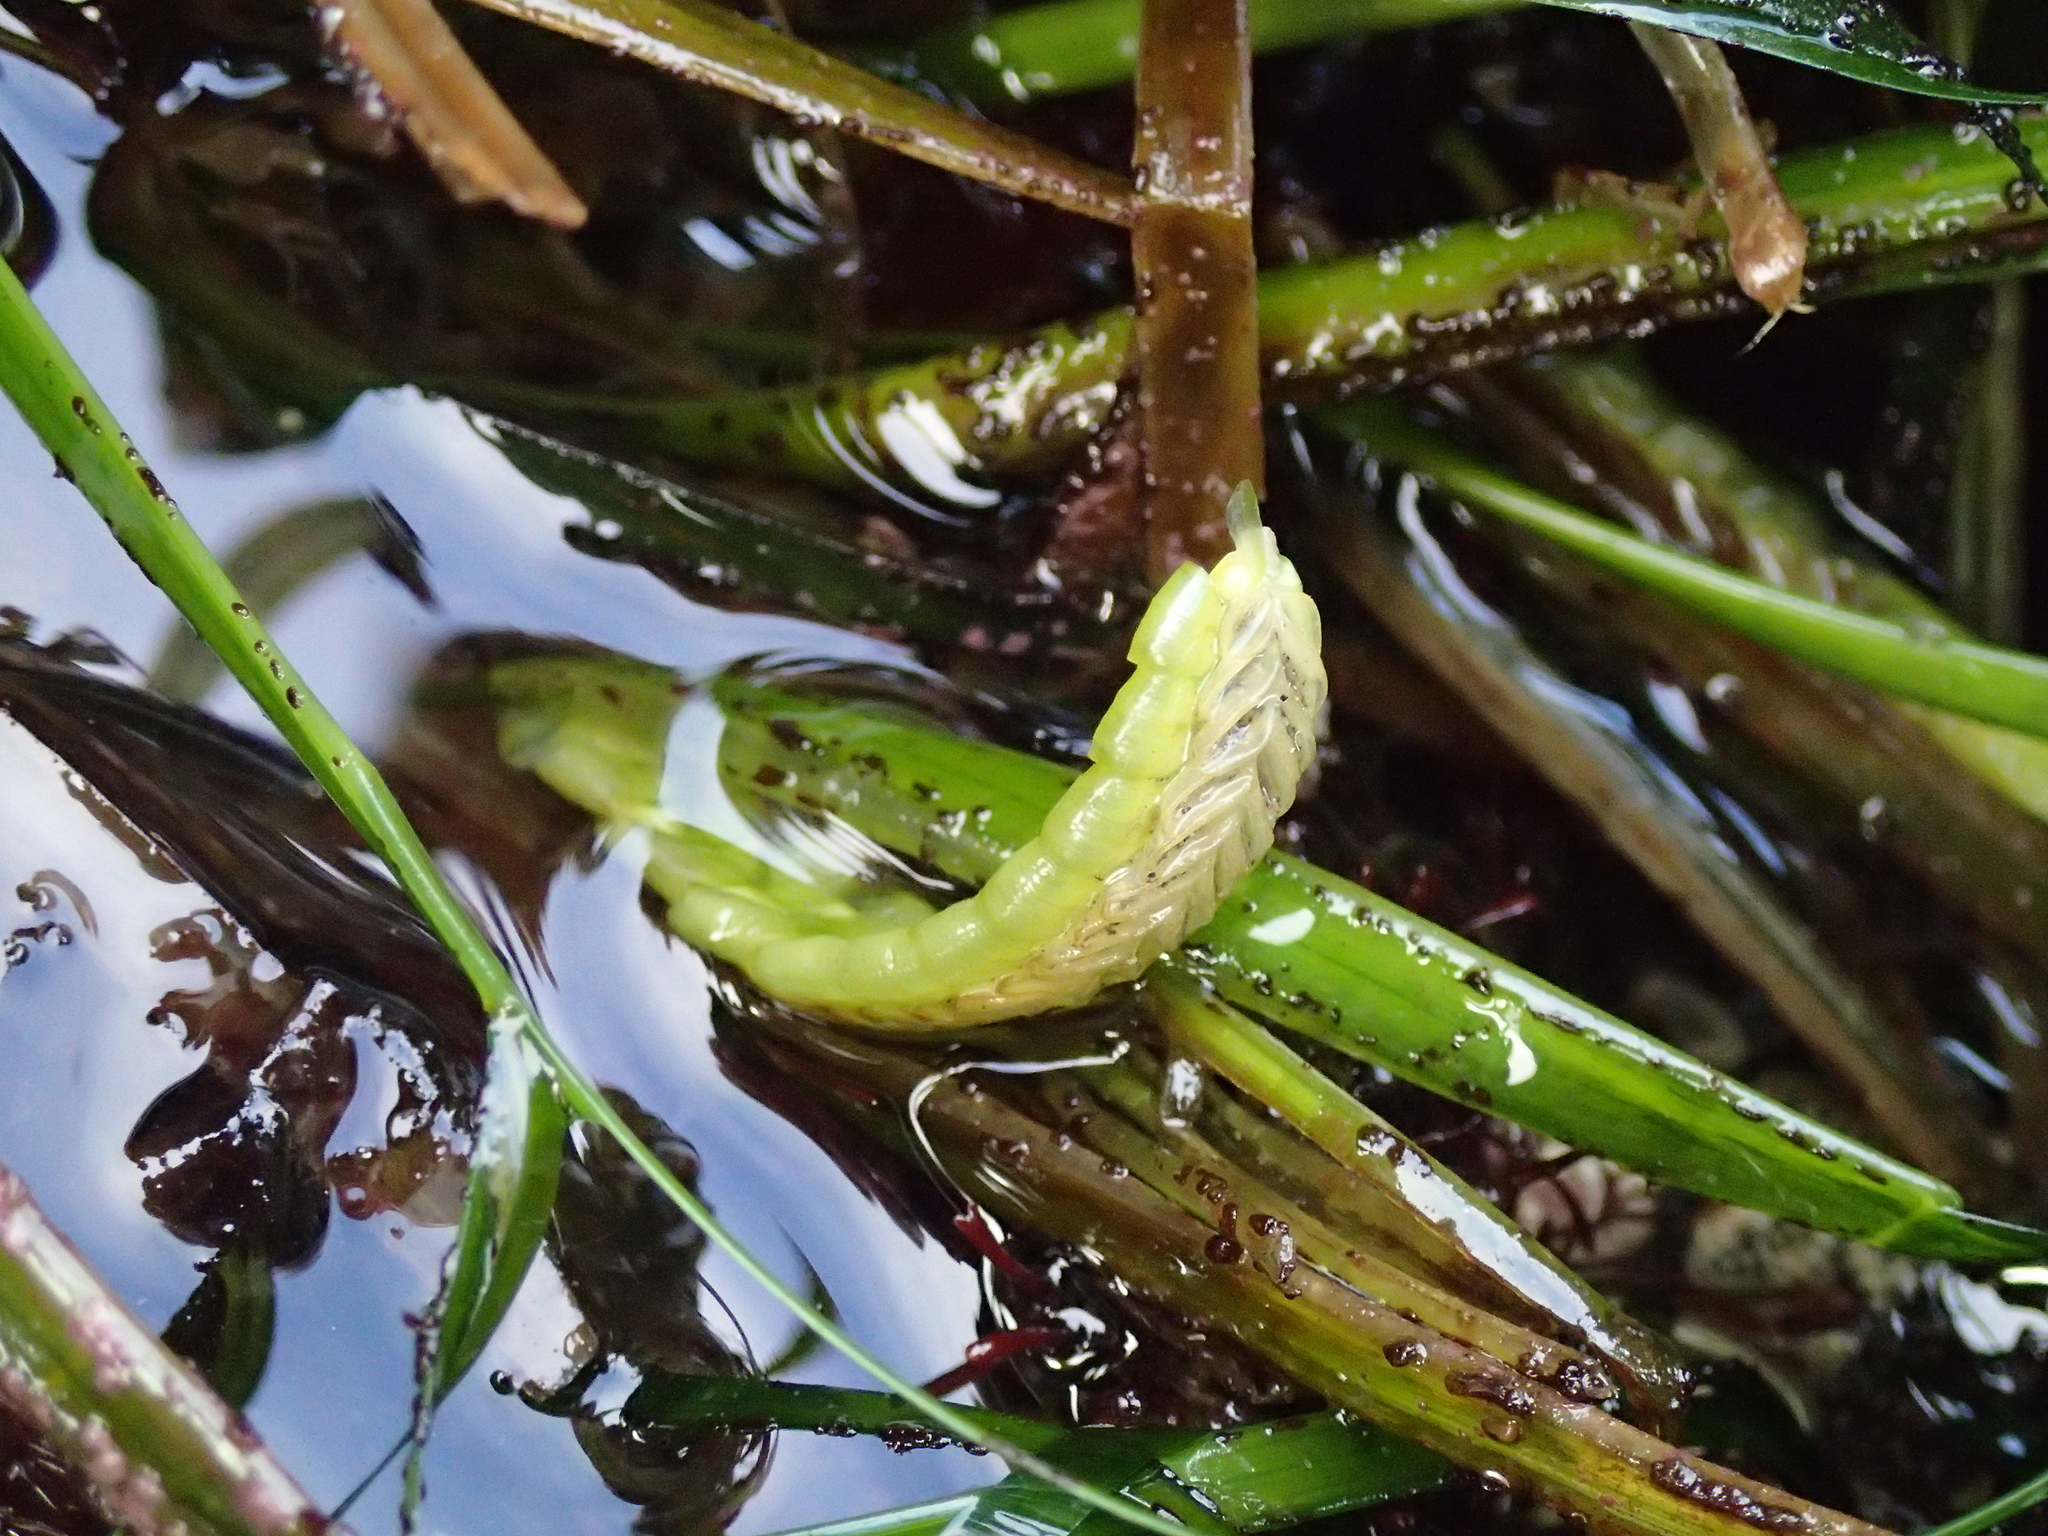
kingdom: Plantae
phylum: Tracheophyta
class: Liliopsida
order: Alismatales
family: Zosteraceae
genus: Phyllospadix
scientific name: Phyllospadix scouleri
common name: Species code: ps
